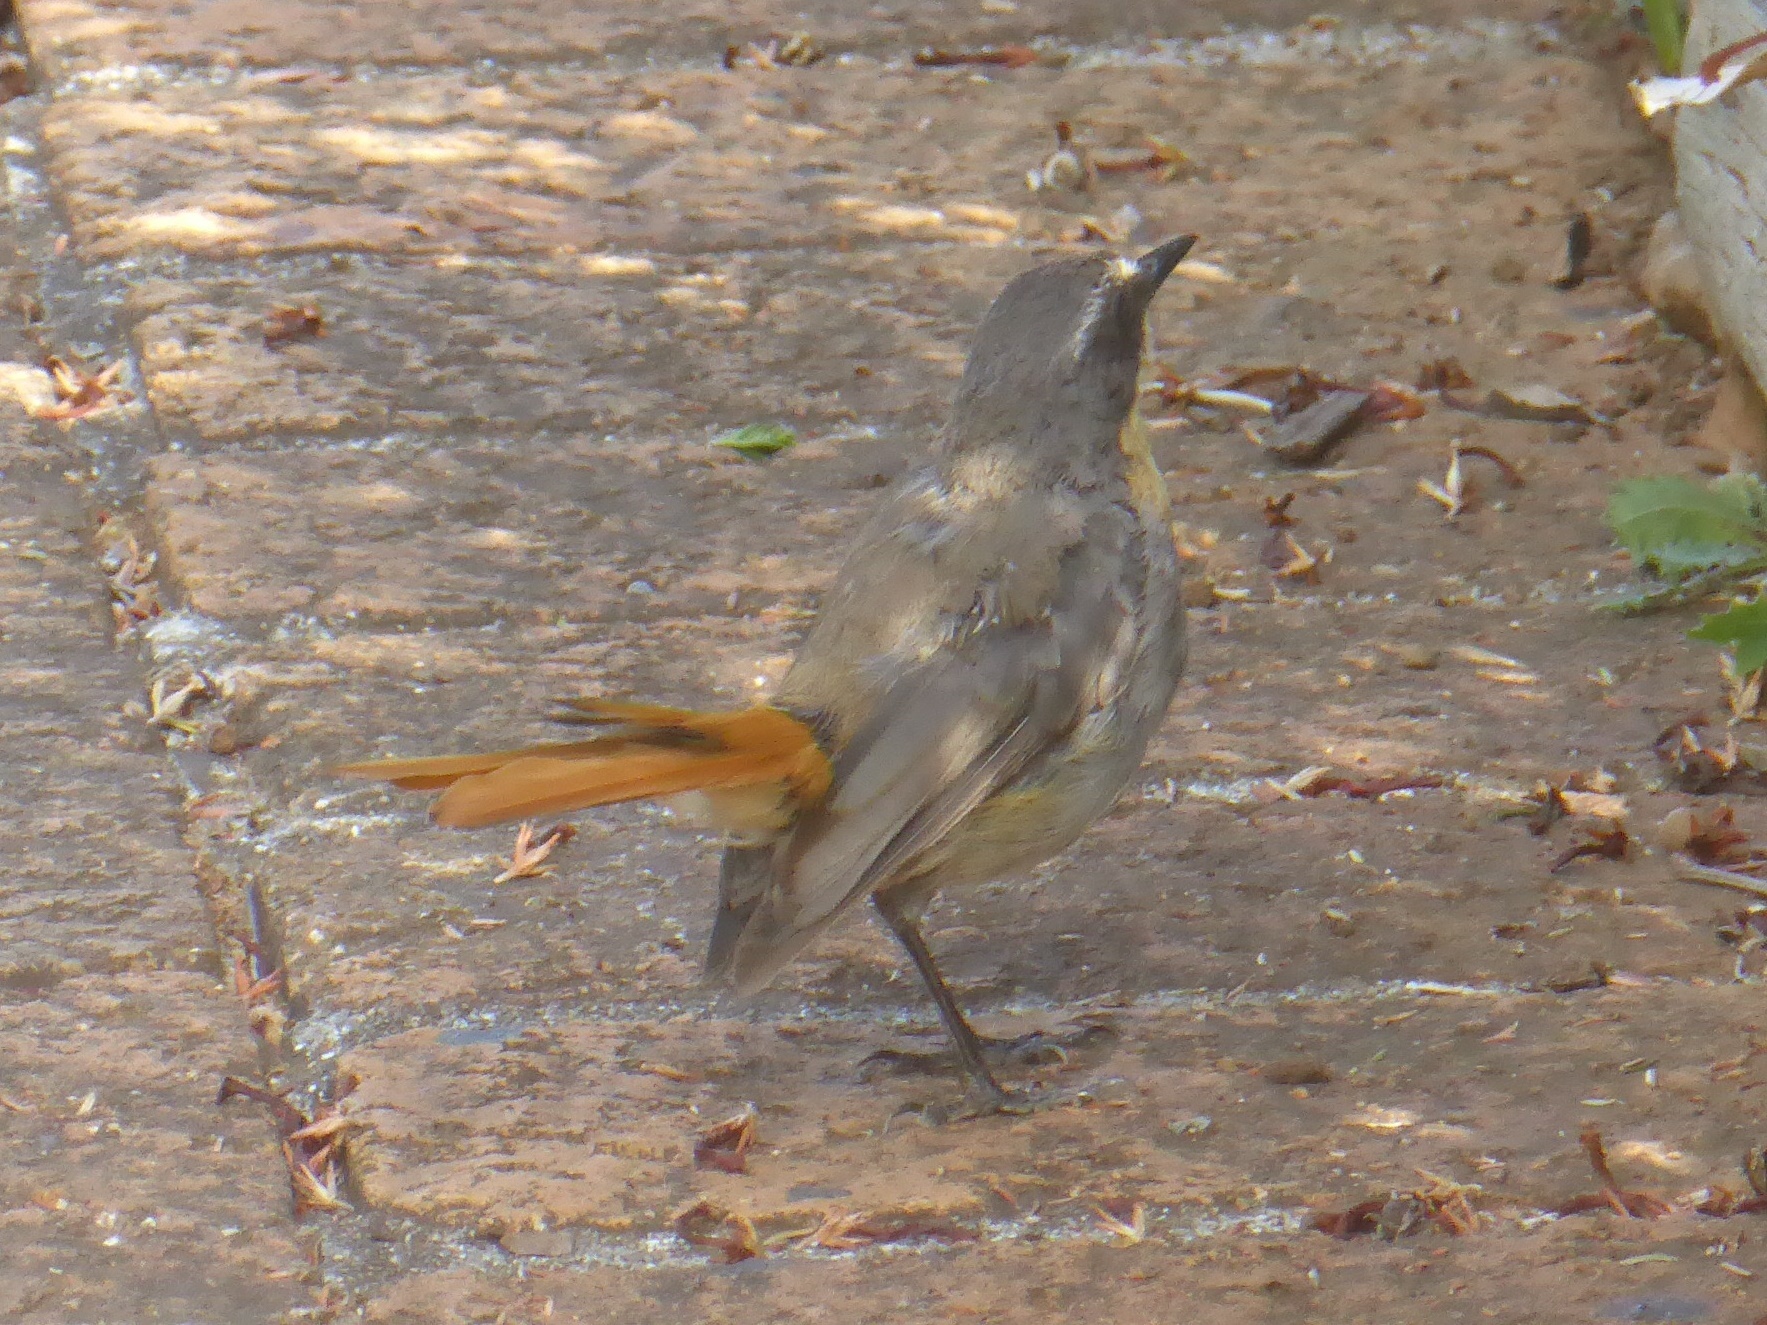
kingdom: Animalia
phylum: Chordata
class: Aves
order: Passeriformes
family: Muscicapidae
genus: Cossypha
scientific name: Cossypha caffra
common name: Cape robin-chat
